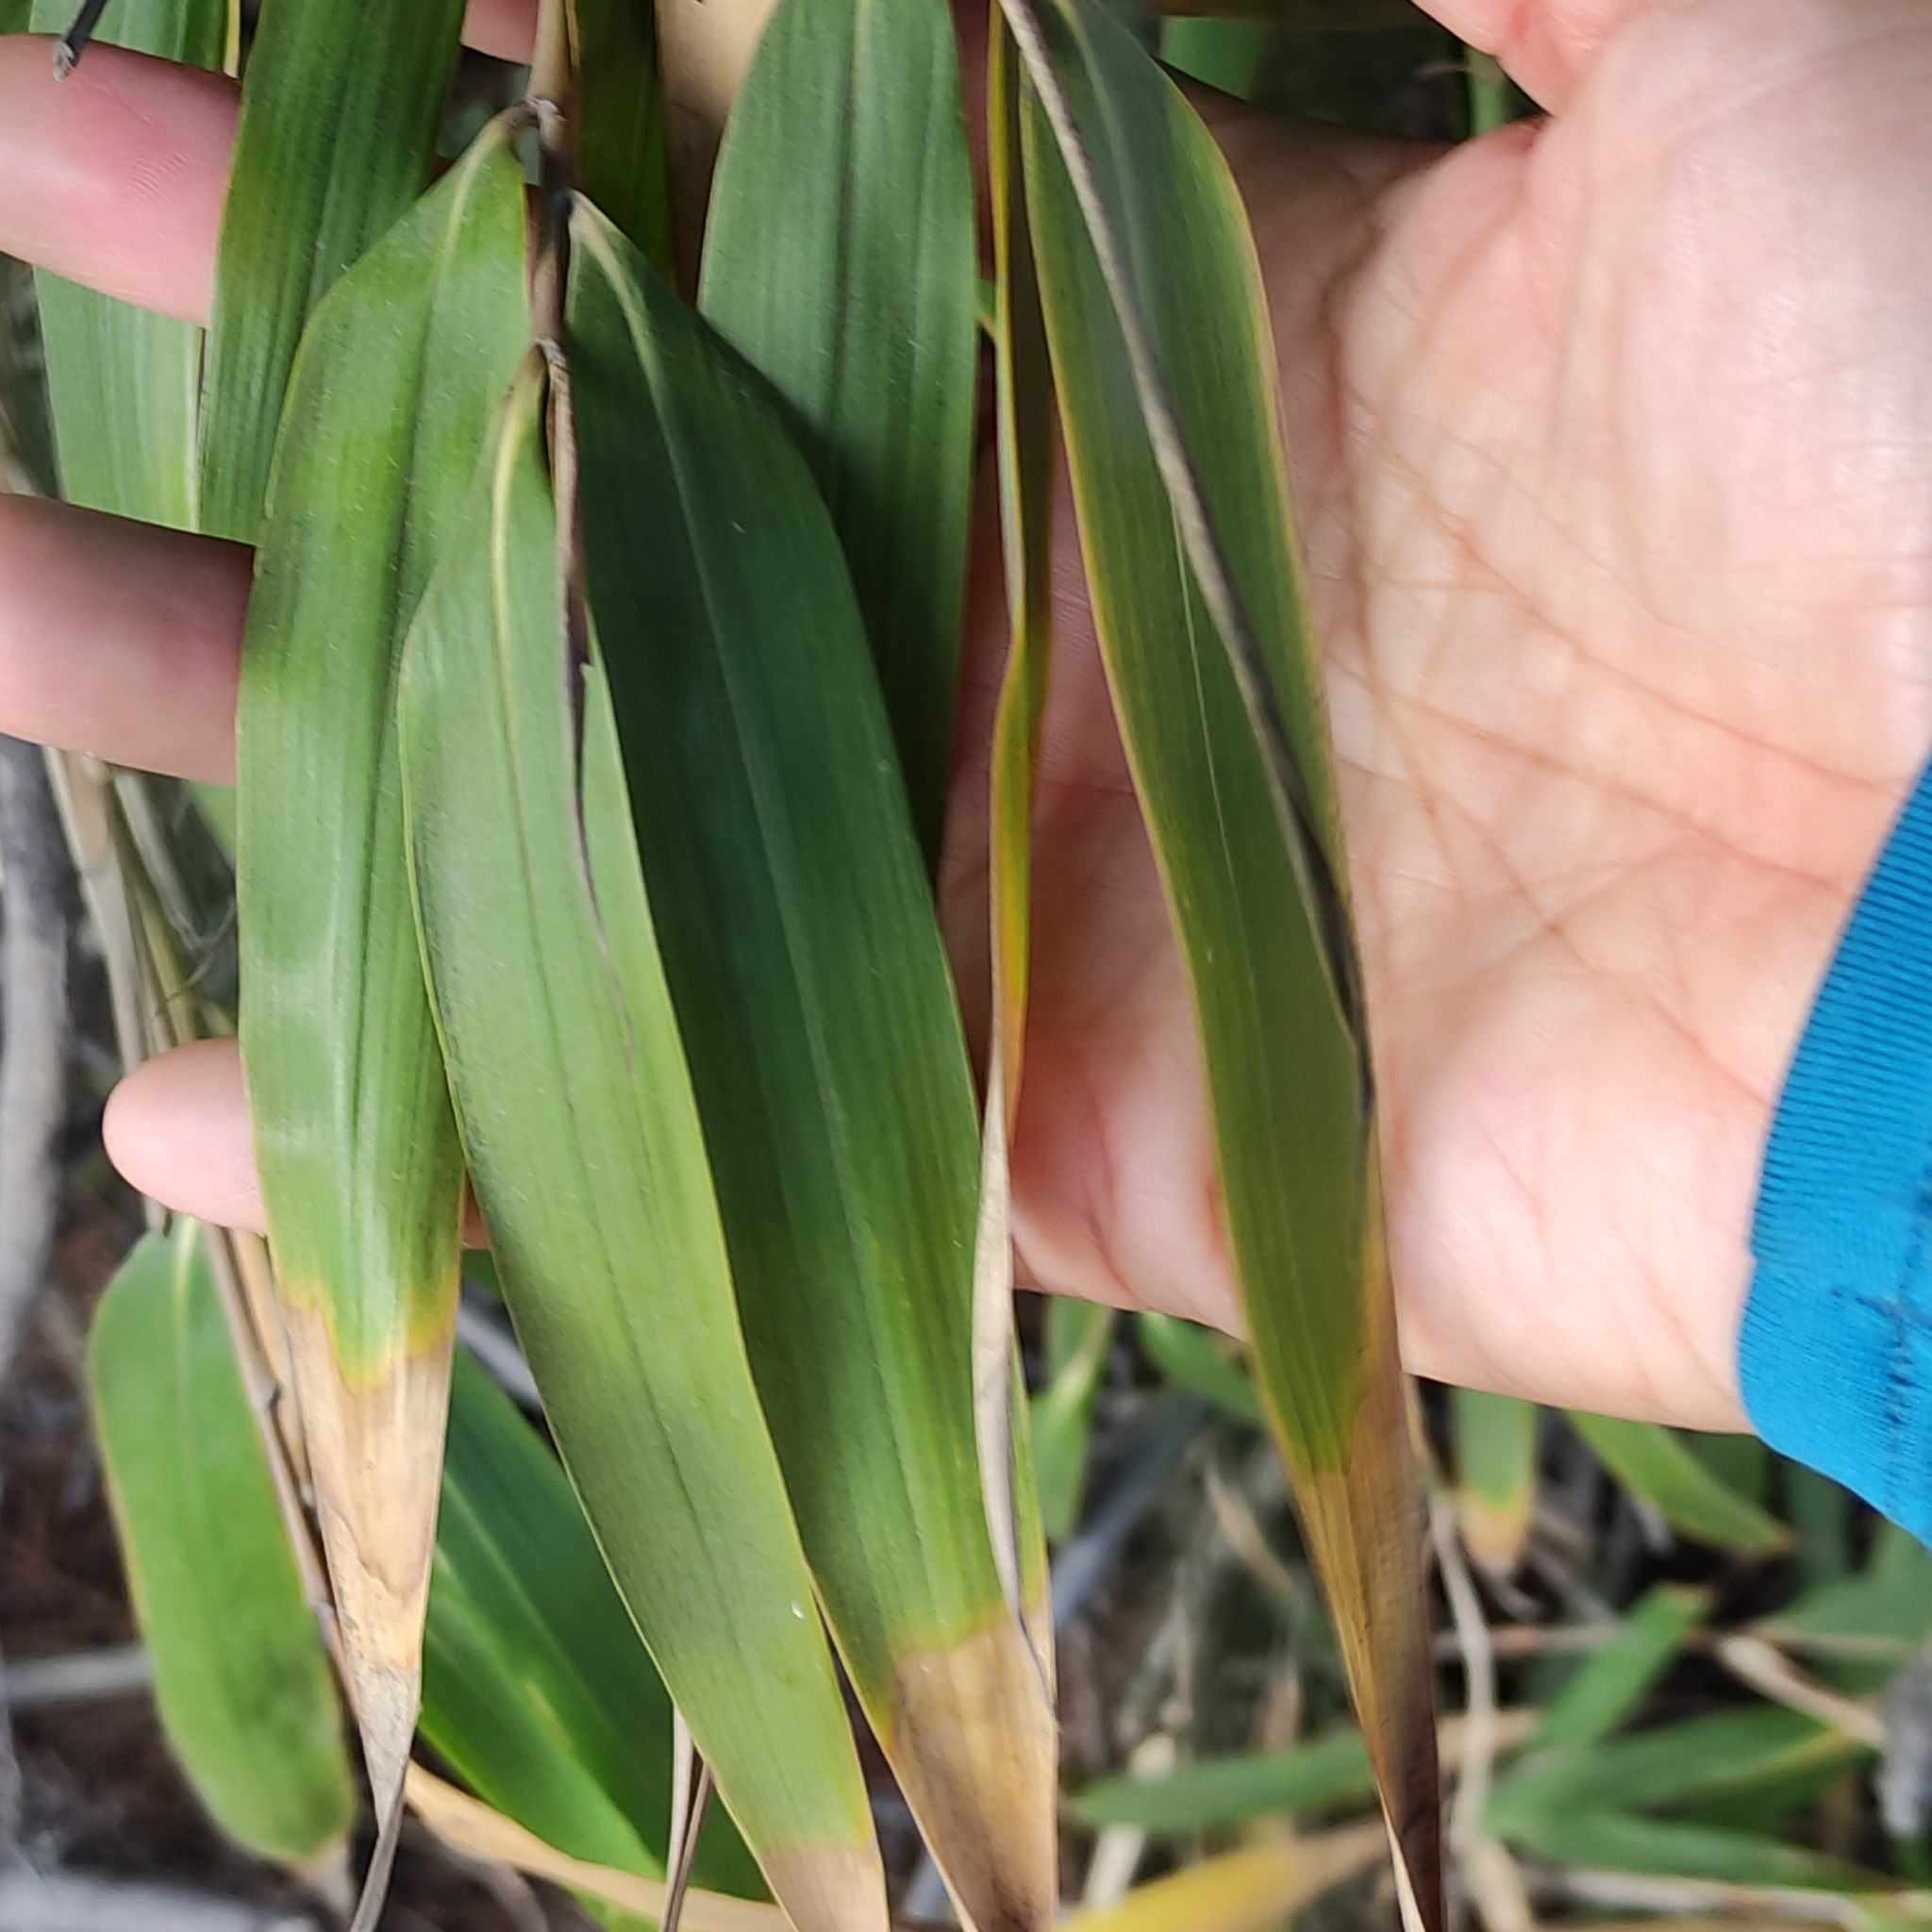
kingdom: Plantae
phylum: Tracheophyta
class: Liliopsida
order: Poales
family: Poaceae
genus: Pseudosasa
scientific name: Pseudosasa japonica
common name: Arrow bamboo
